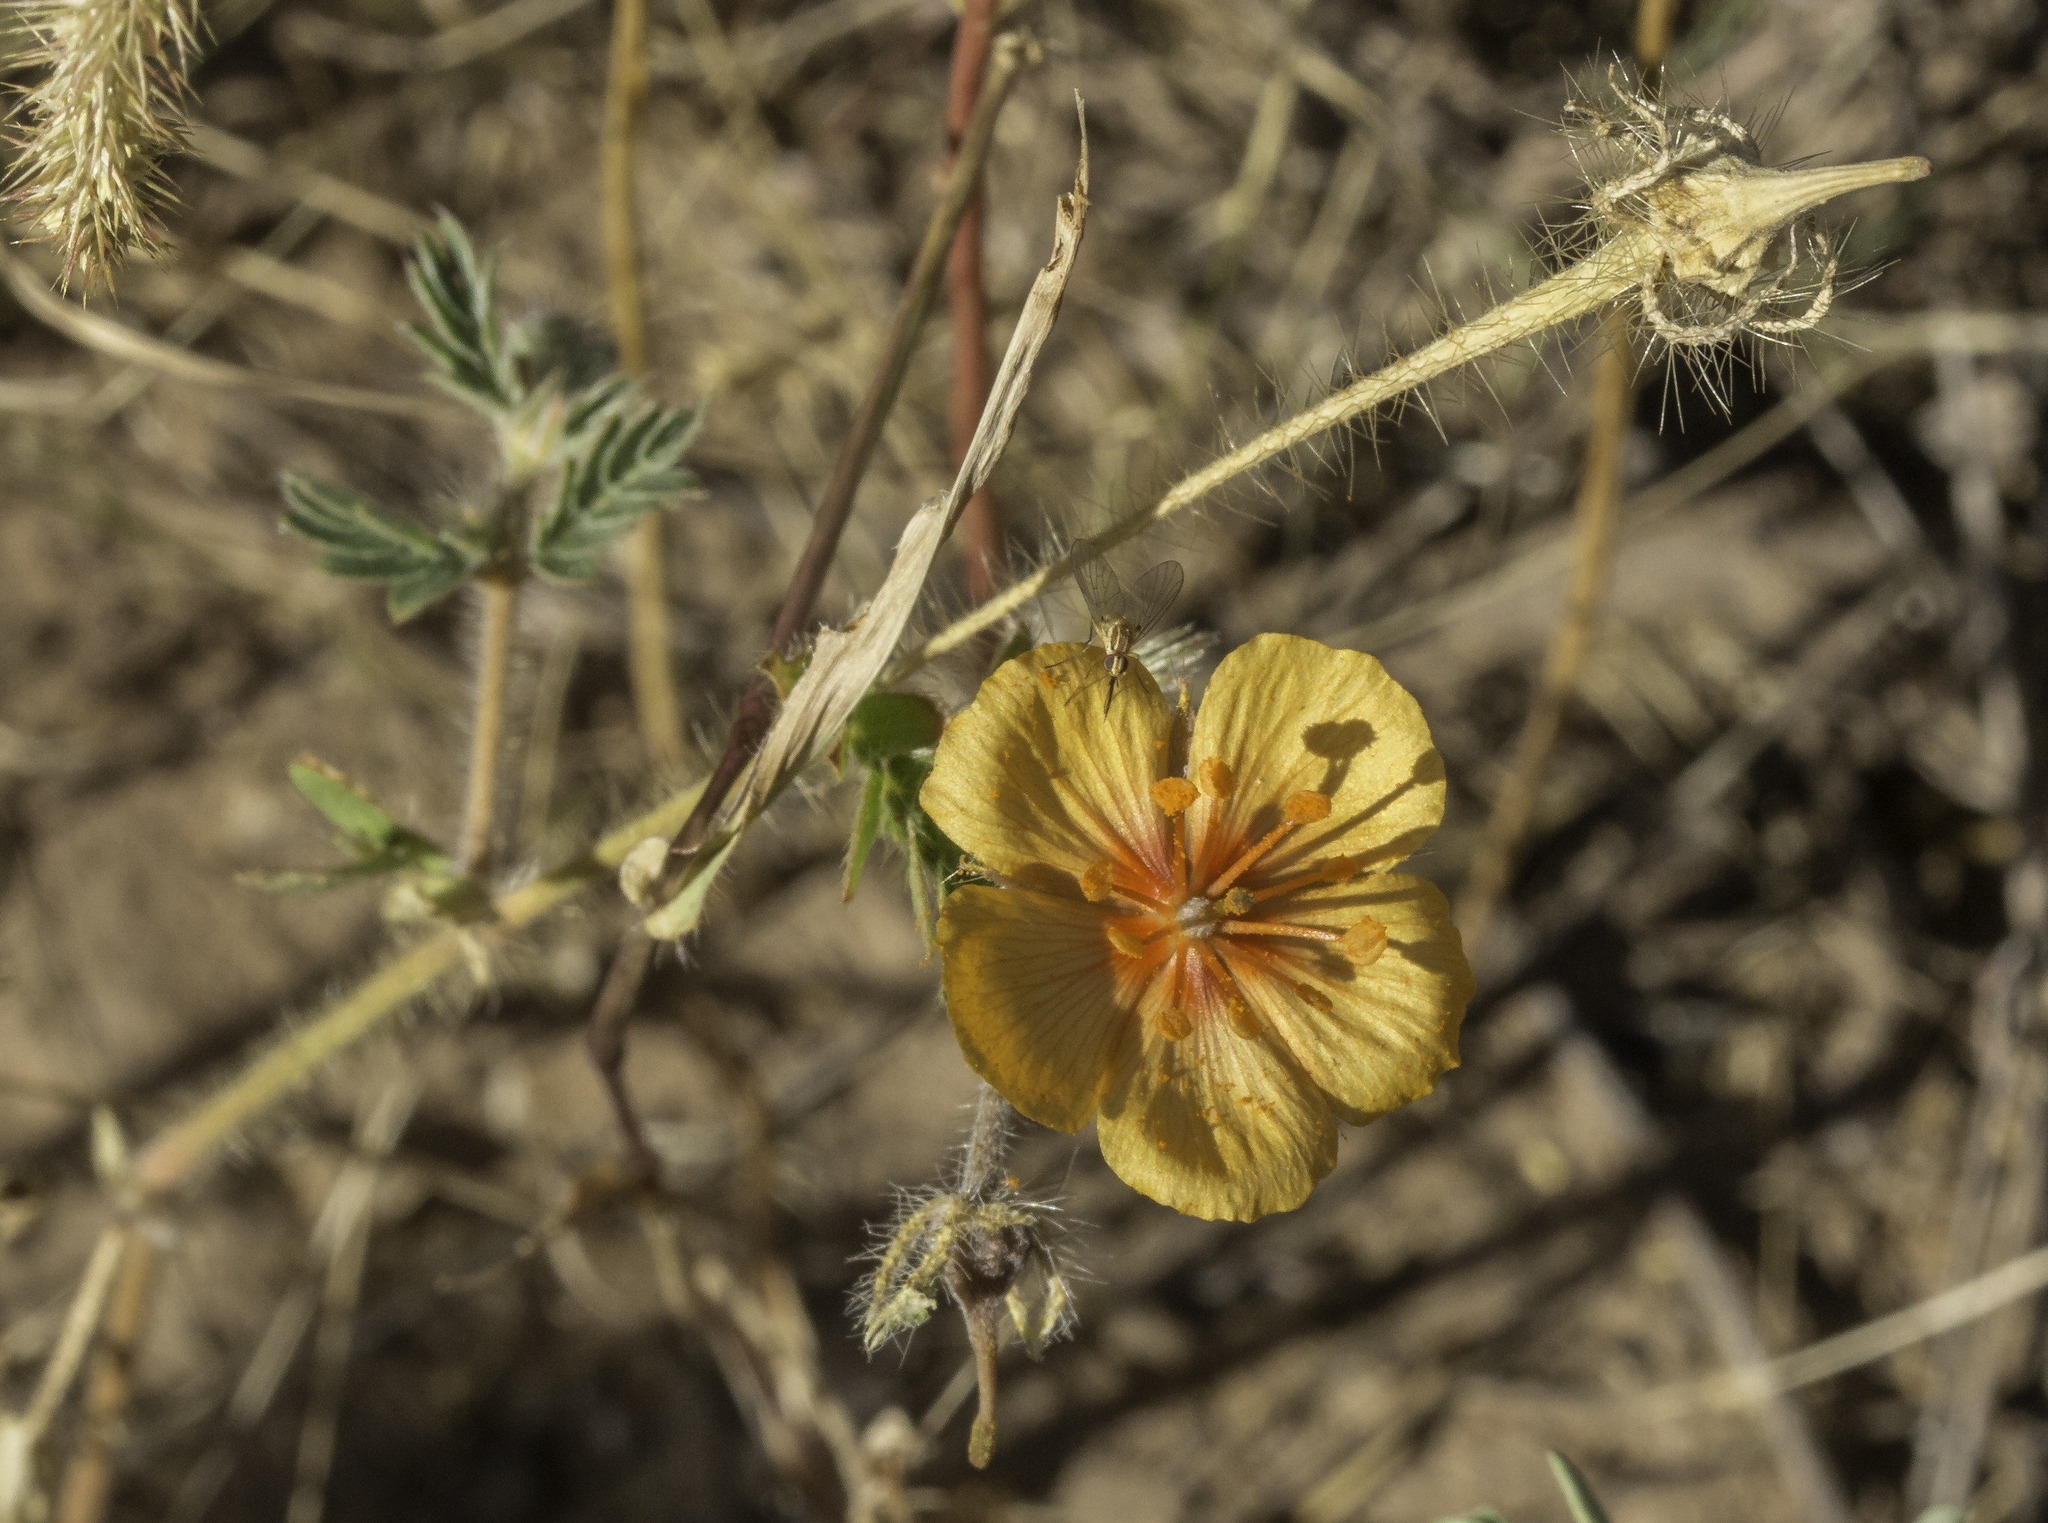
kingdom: Plantae
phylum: Tracheophyta
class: Magnoliopsida
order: Zygophyllales
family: Zygophyllaceae
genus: Kallstroemia
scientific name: Kallstroemia grandiflora
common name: Arizona-poppy
